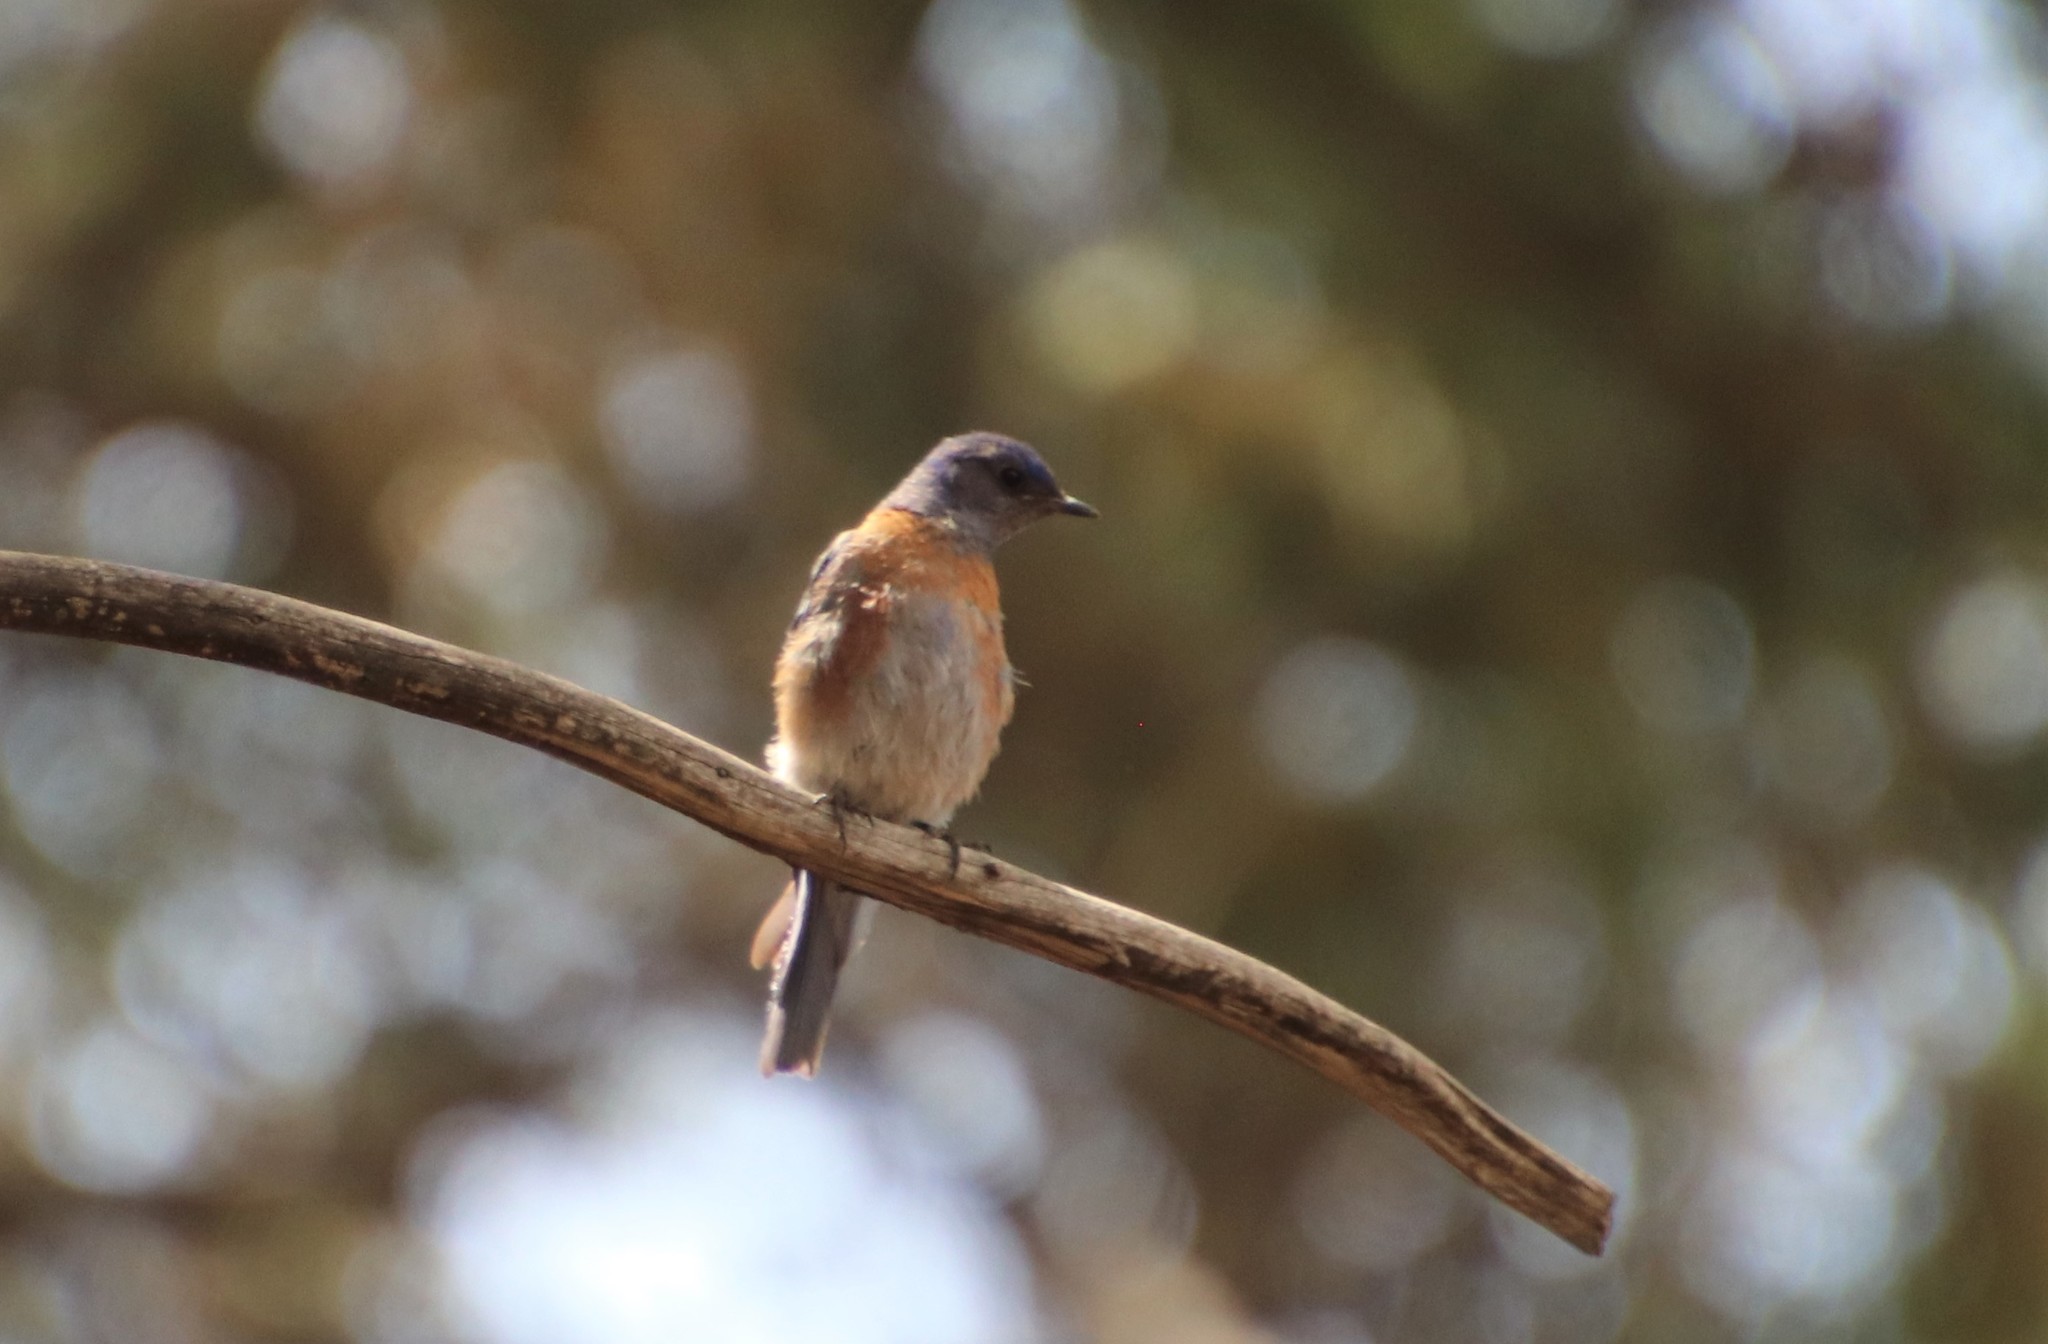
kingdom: Animalia
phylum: Chordata
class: Aves
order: Passeriformes
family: Turdidae
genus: Sialia
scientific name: Sialia mexicana
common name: Western bluebird
